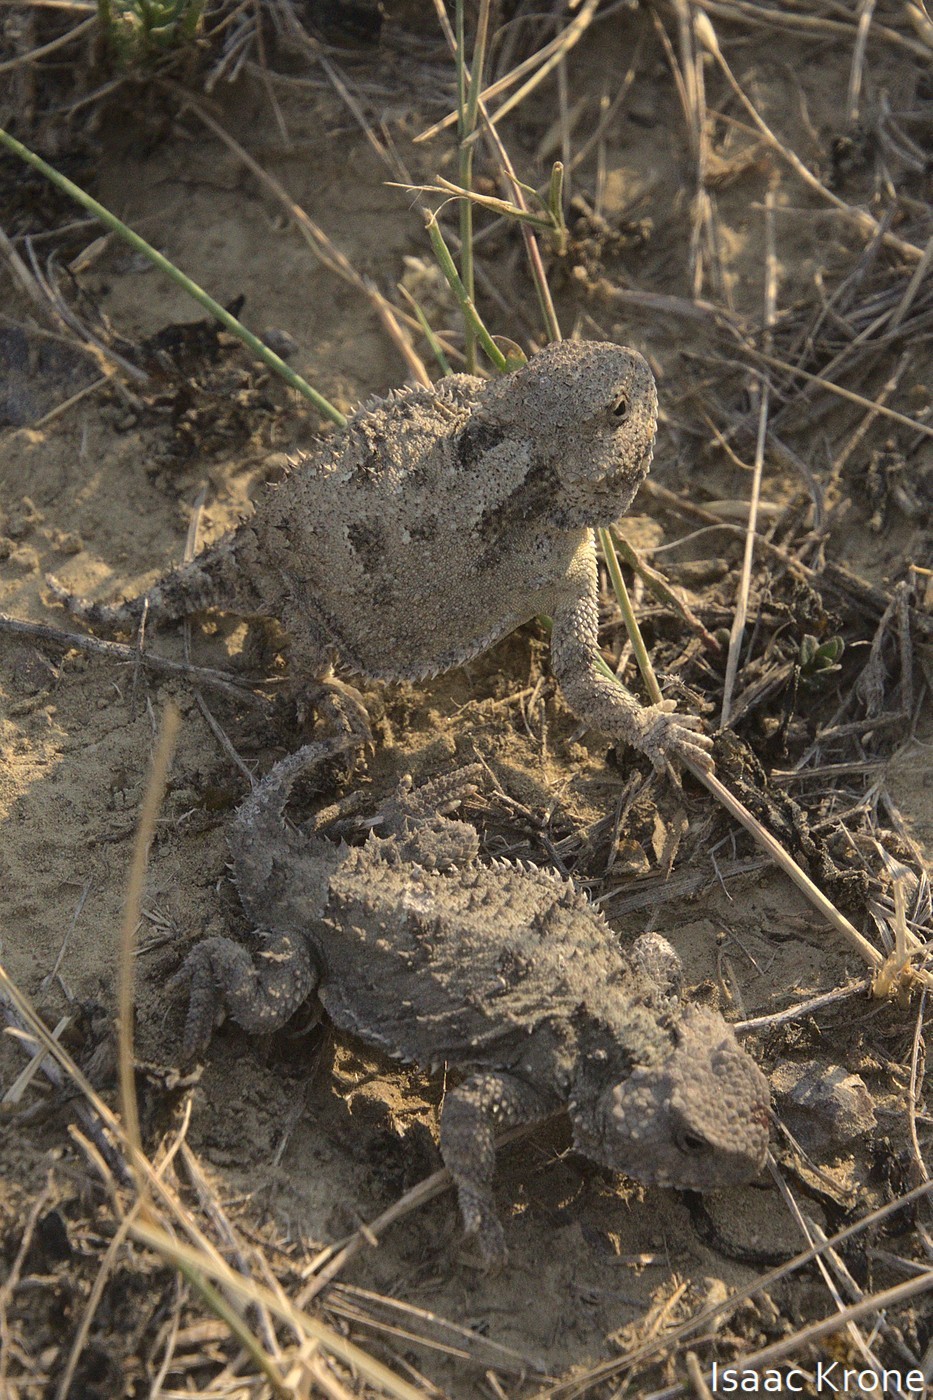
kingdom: Animalia
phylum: Chordata
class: Squamata
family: Phrynosomatidae
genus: Phrynosoma
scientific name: Phrynosoma hernandesi
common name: Greater short-horned lizard
